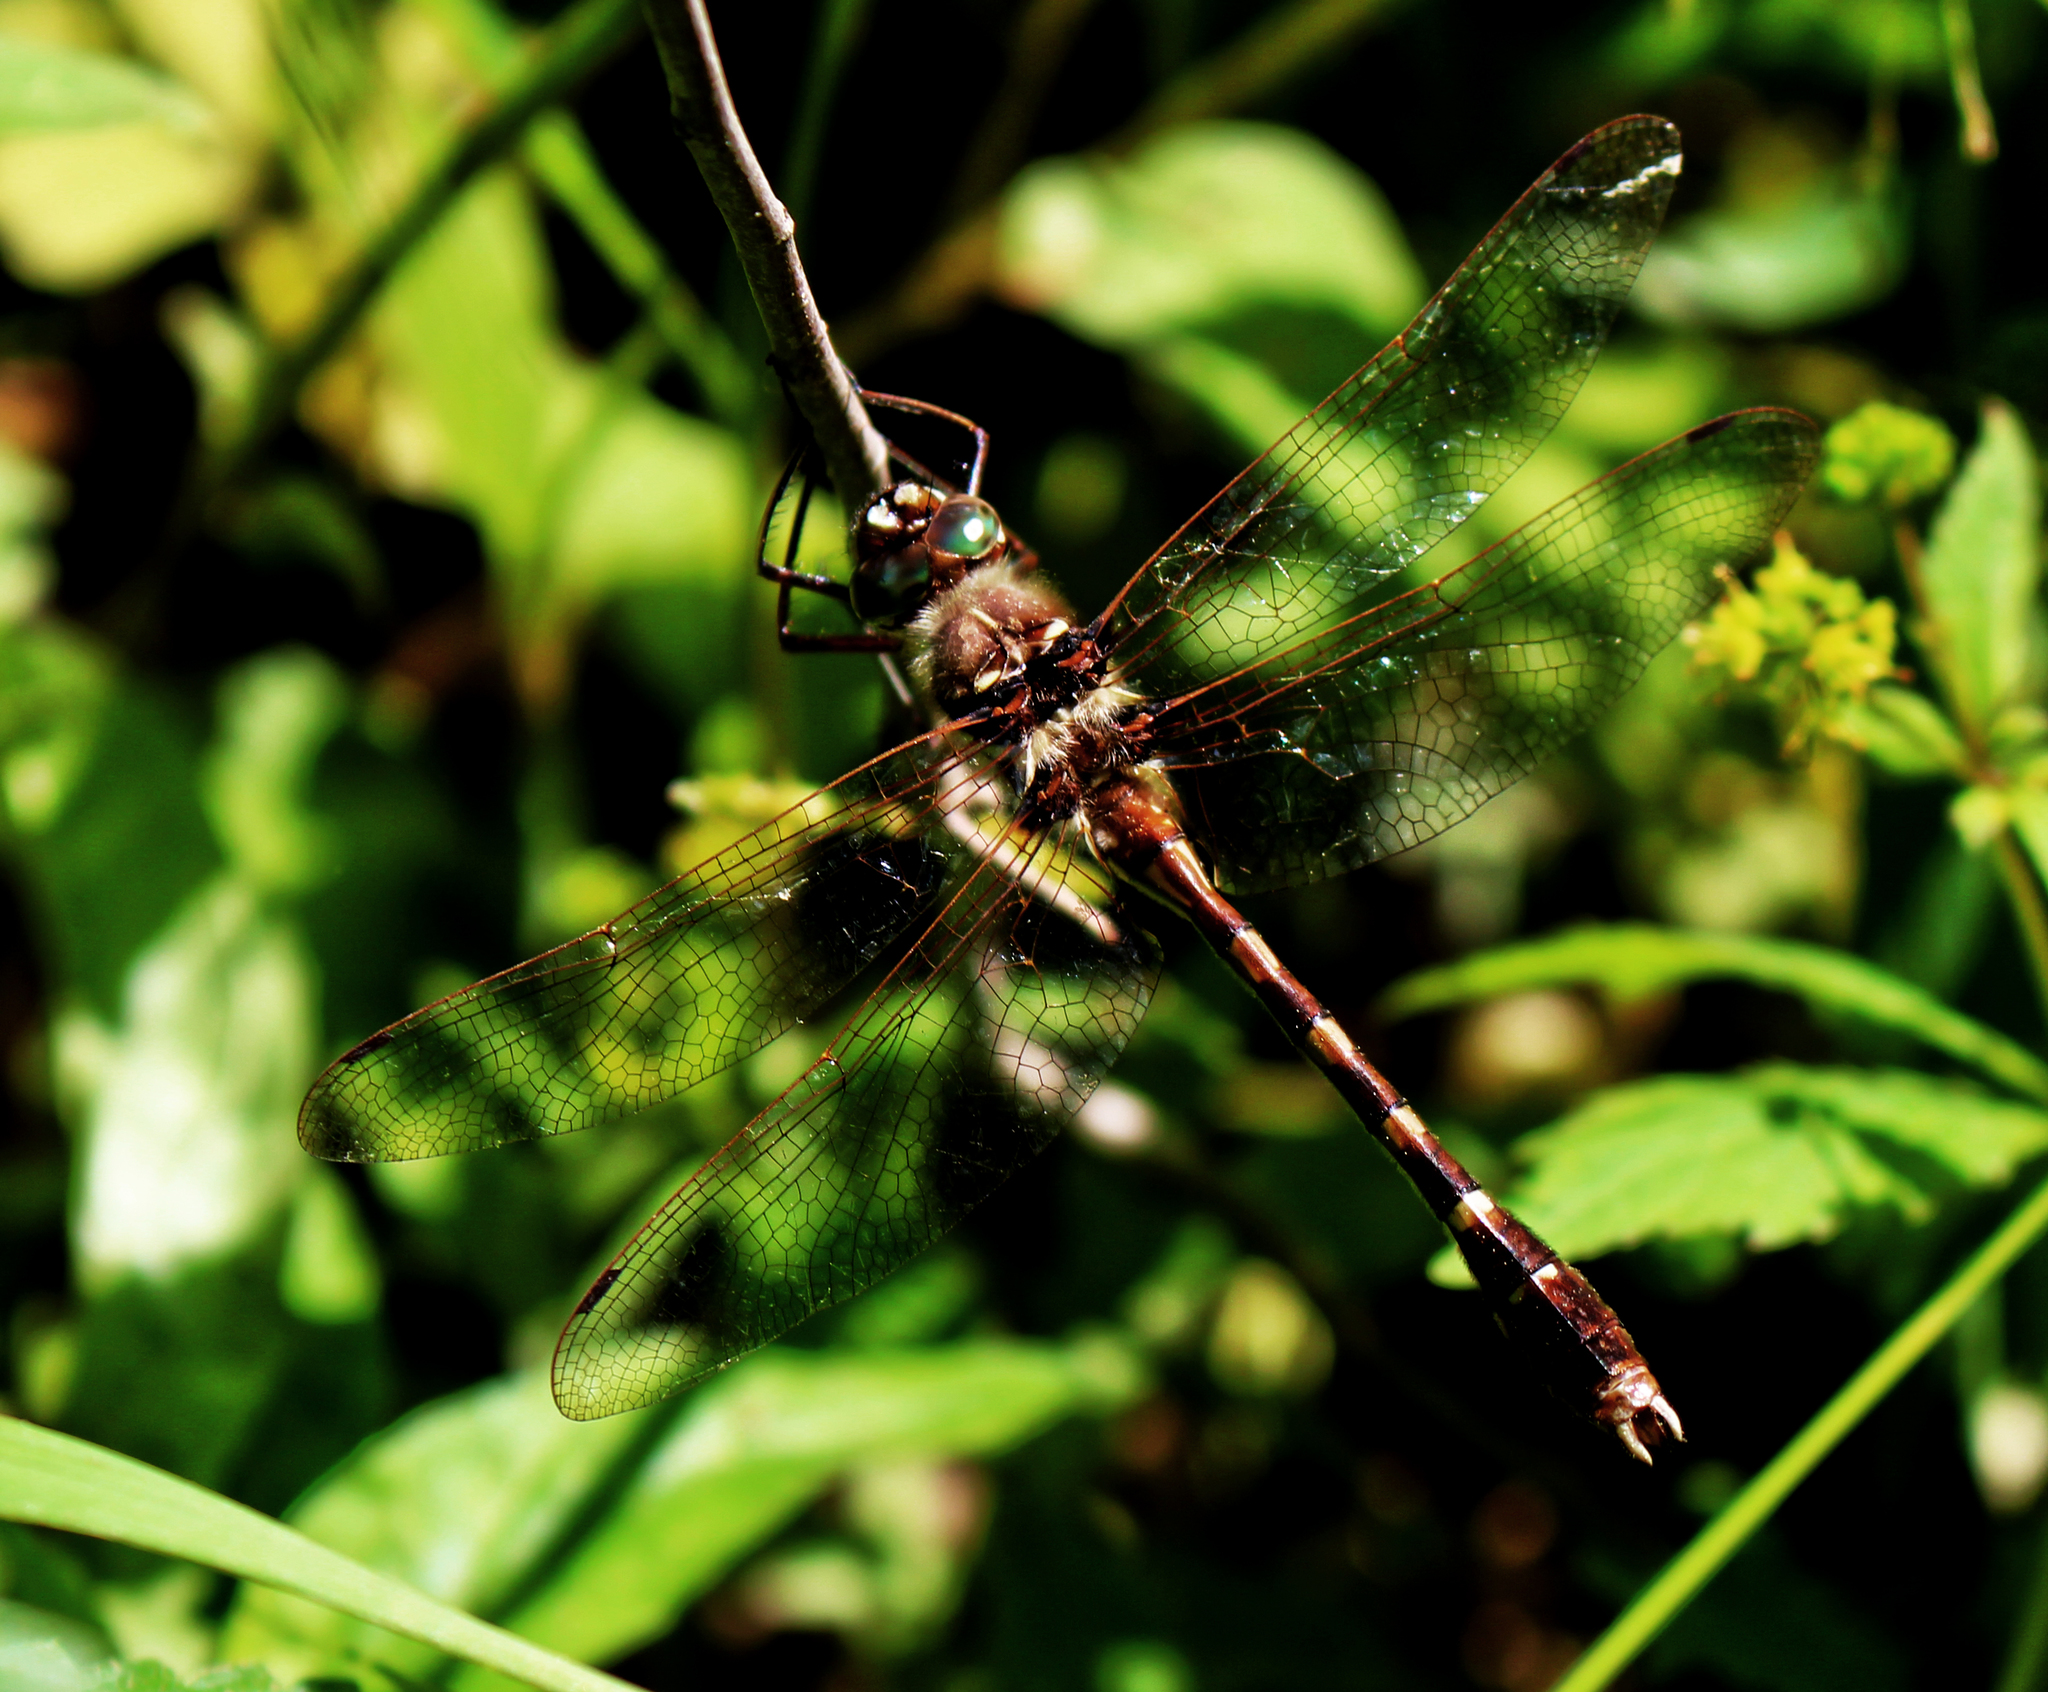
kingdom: Animalia
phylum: Arthropoda
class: Insecta
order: Odonata
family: Macromiidae
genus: Didymops
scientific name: Didymops transversa
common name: Stream cruiser
